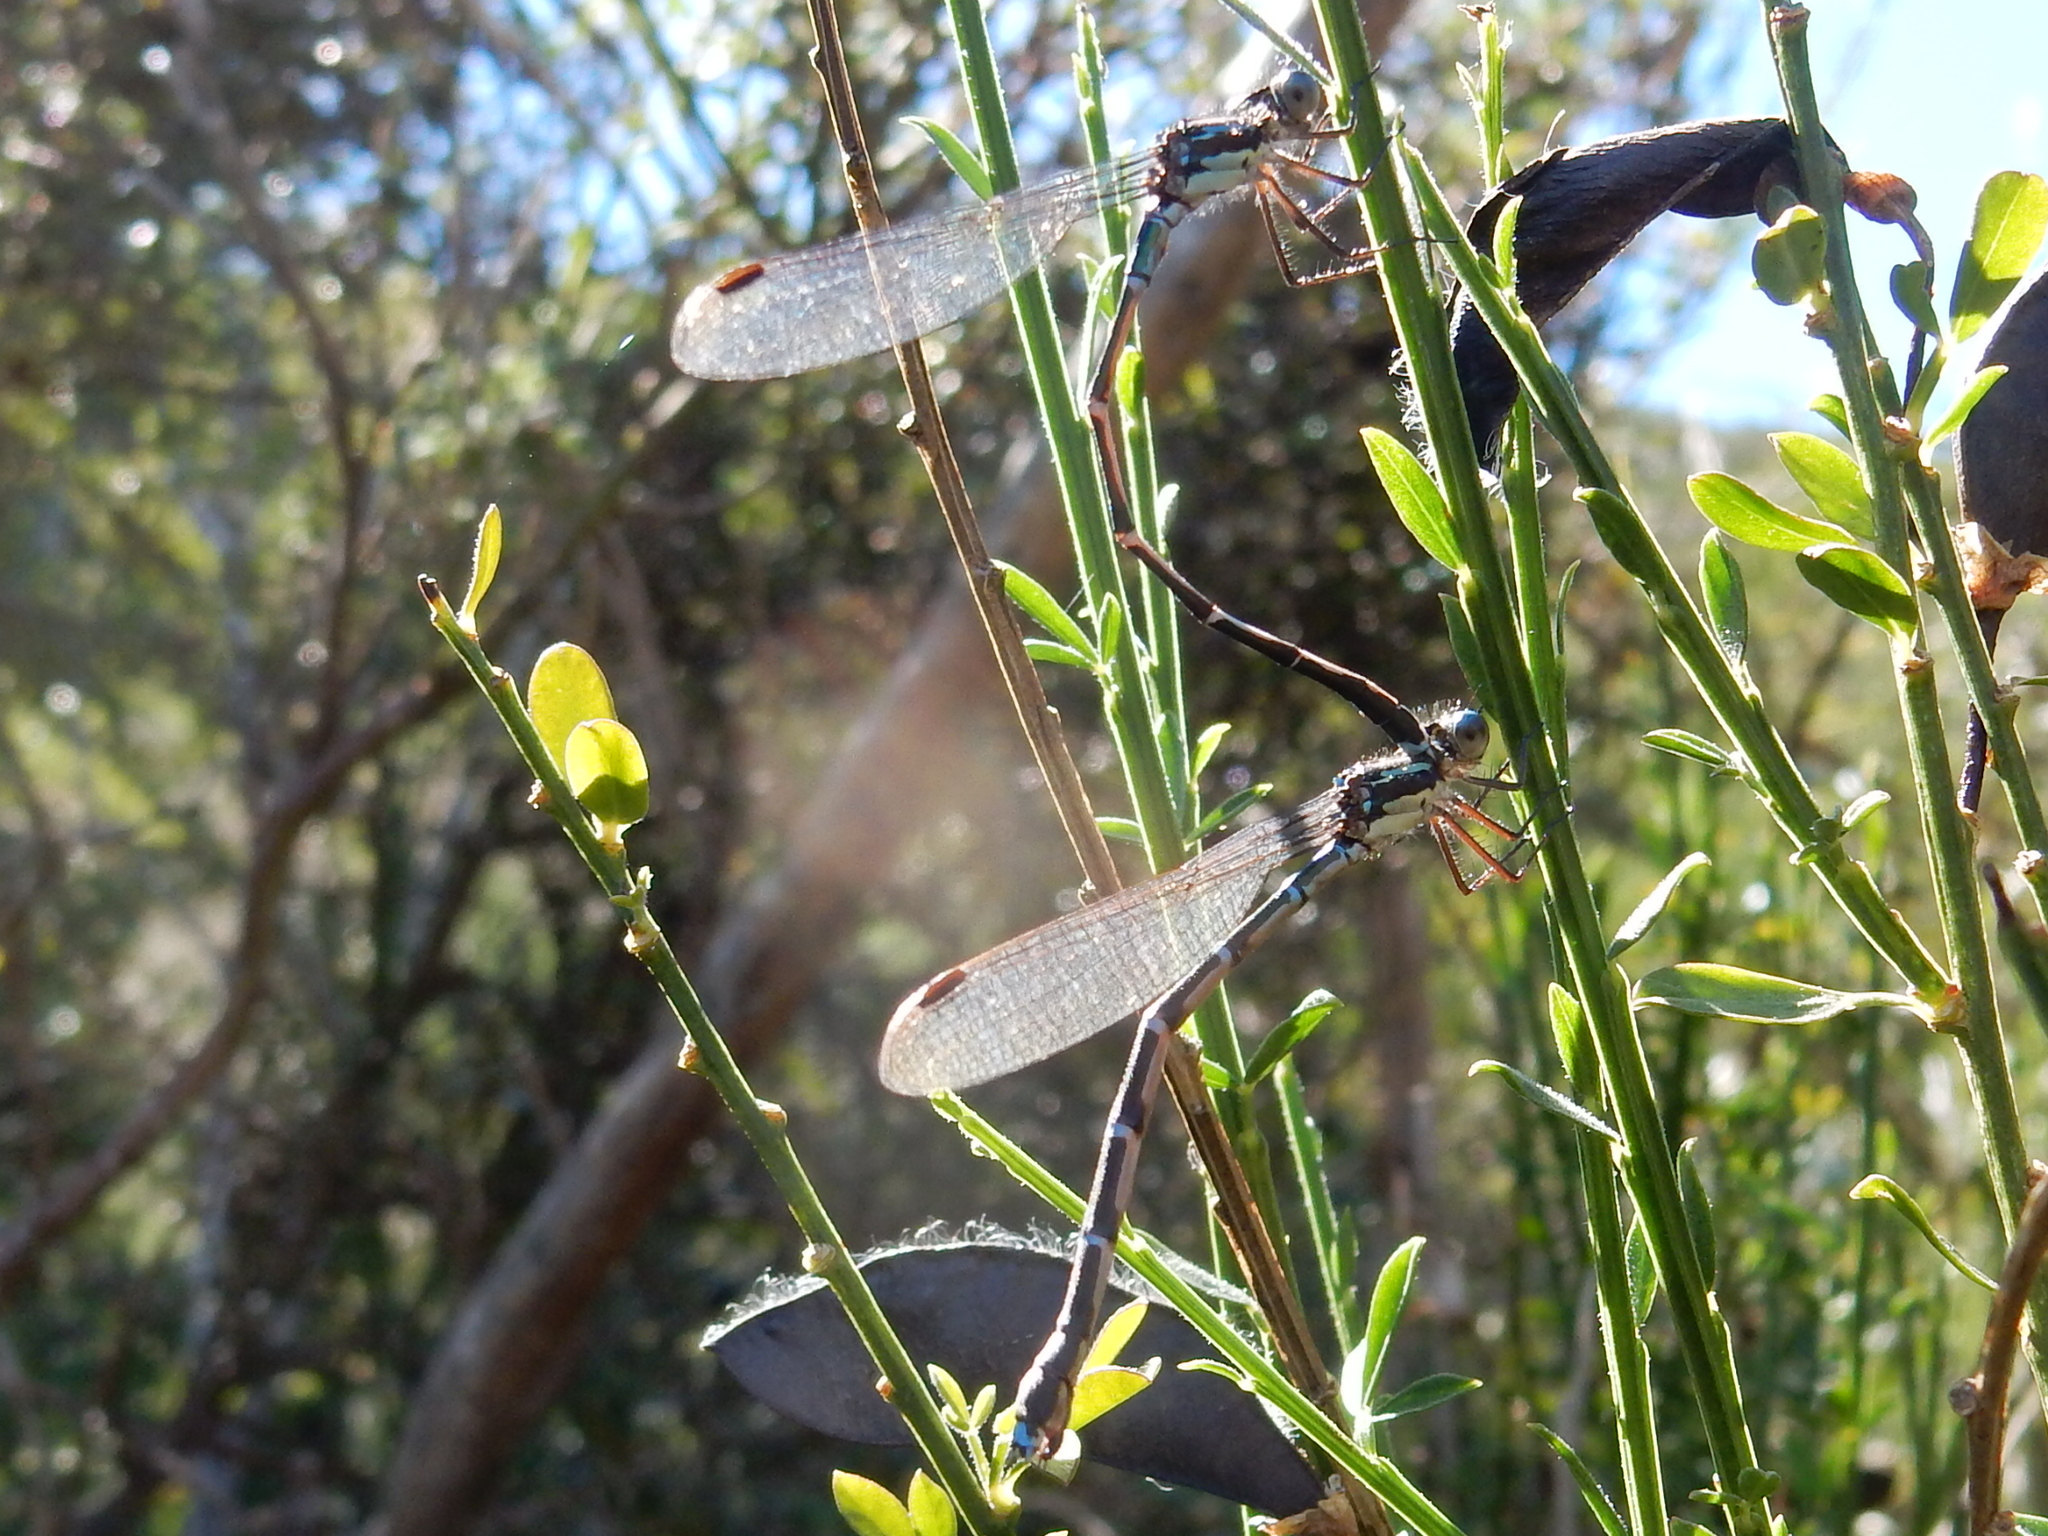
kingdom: Animalia
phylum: Arthropoda
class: Insecta
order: Odonata
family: Lestidae
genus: Austrolestes
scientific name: Austrolestes colensonis
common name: Blue damselfly
